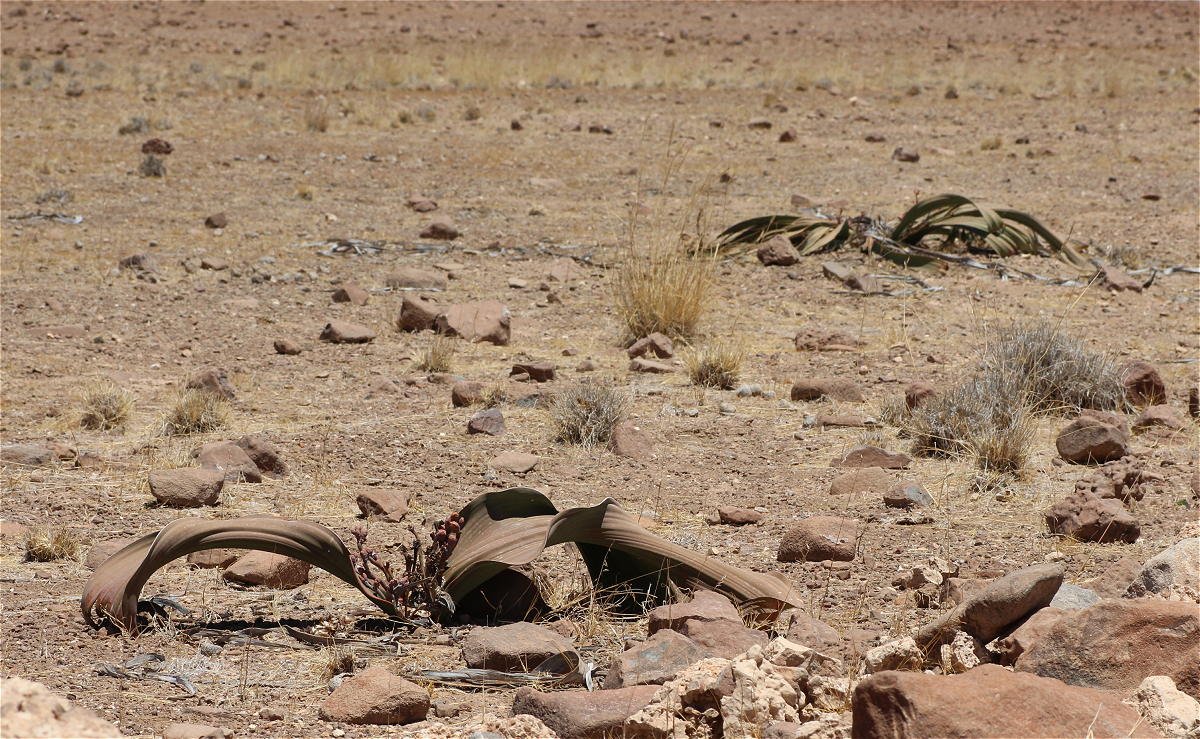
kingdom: Plantae
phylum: Tracheophyta
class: Gnetopsida
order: Welwitschiales
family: Welwitschiaceae
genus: Welwitschia
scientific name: Welwitschia mirabilis
